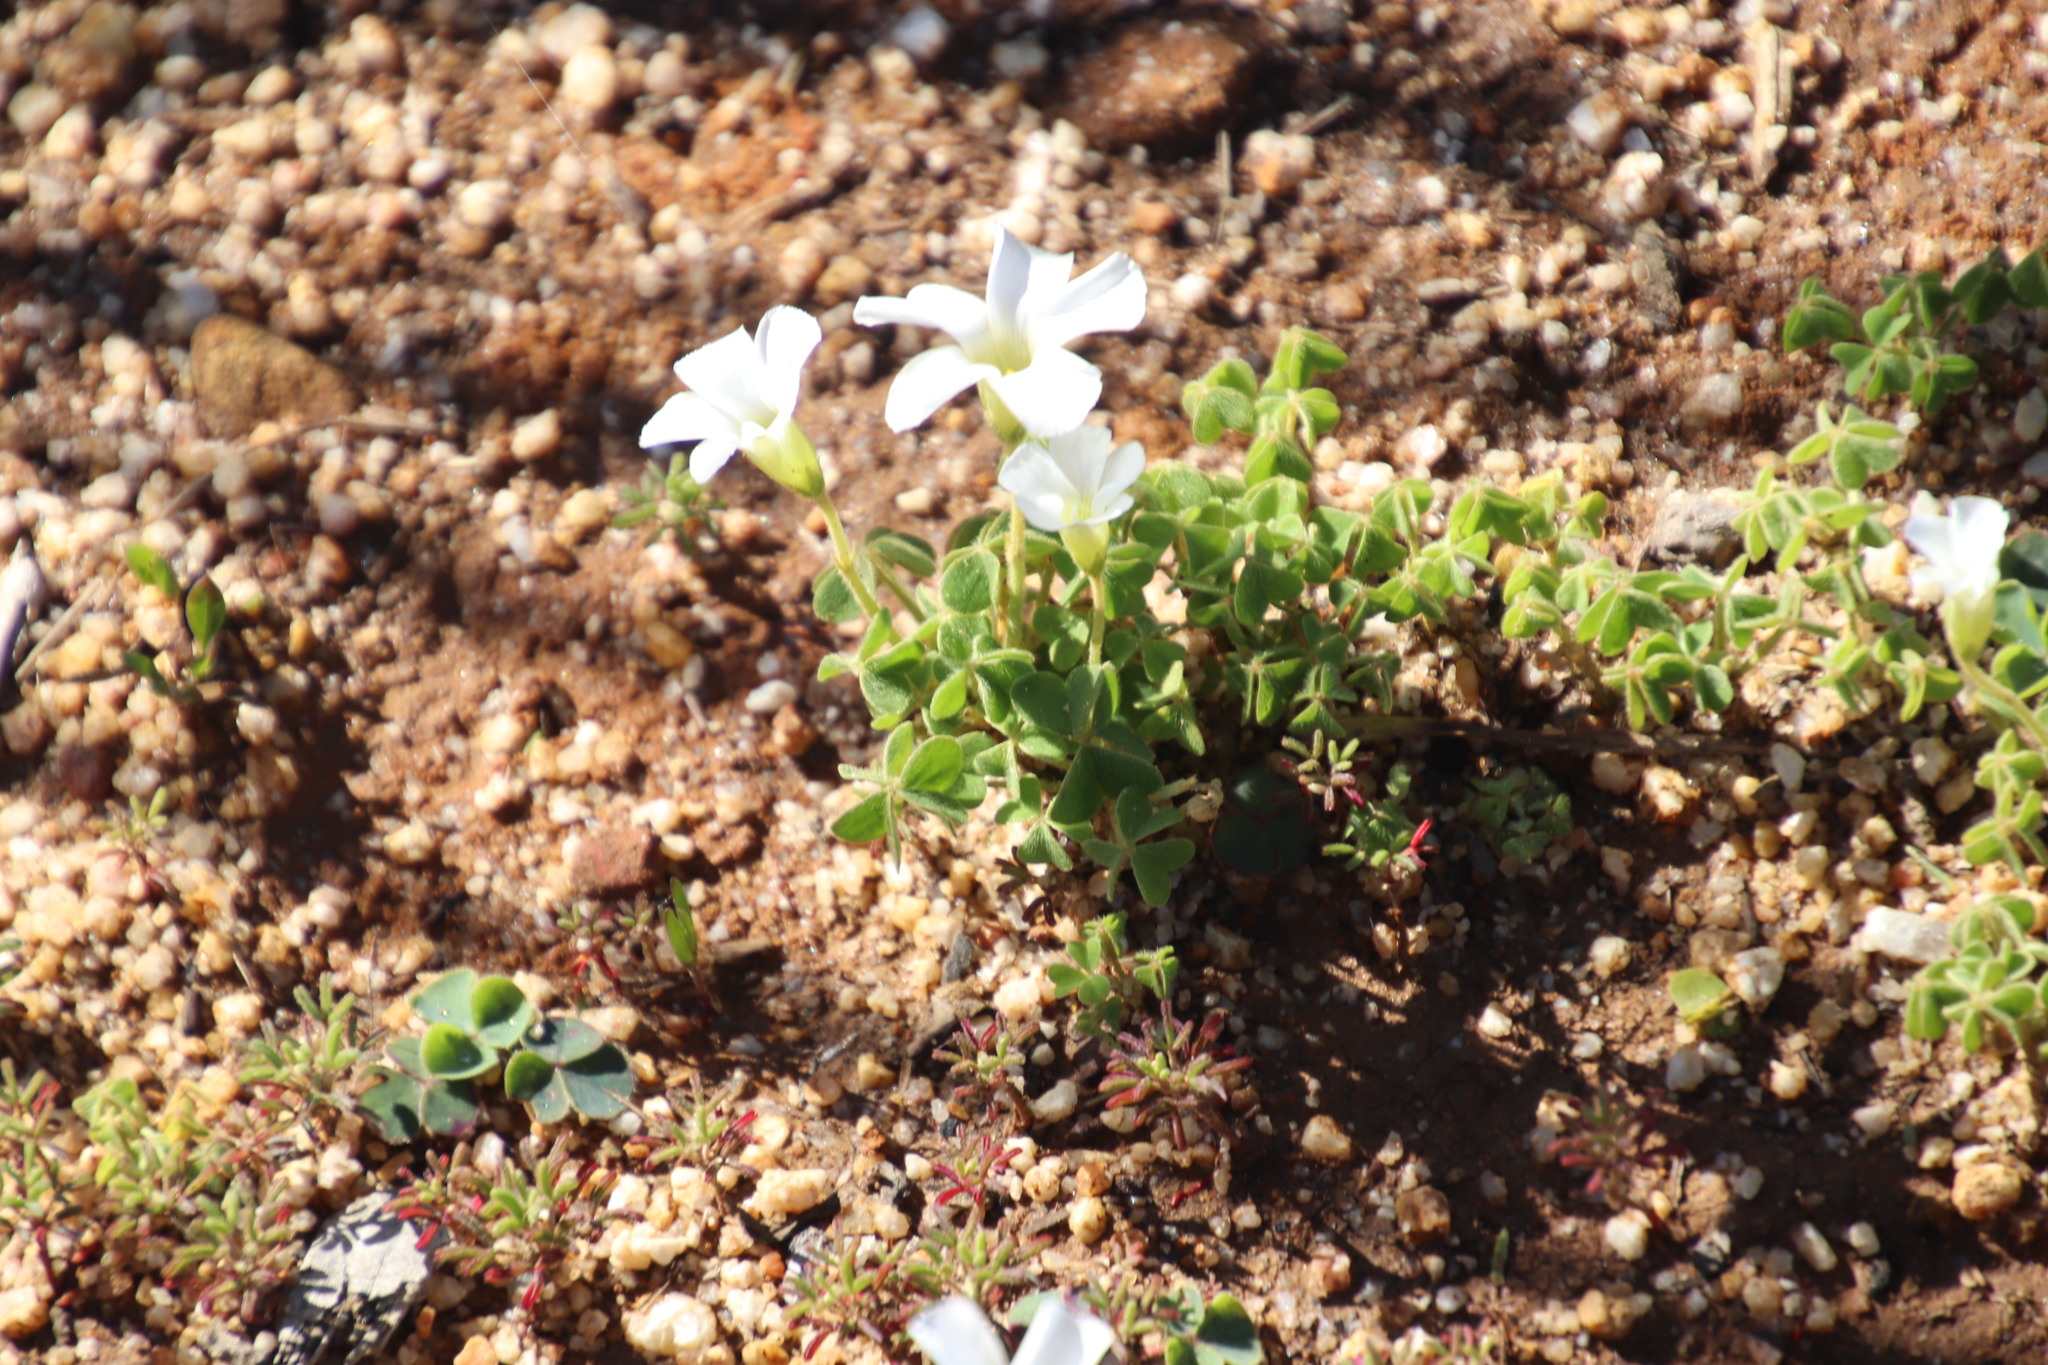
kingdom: Plantae
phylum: Tracheophyta
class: Magnoliopsida
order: Oxalidales
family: Oxalidaceae
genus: Oxalis
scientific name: Oxalis lanata
